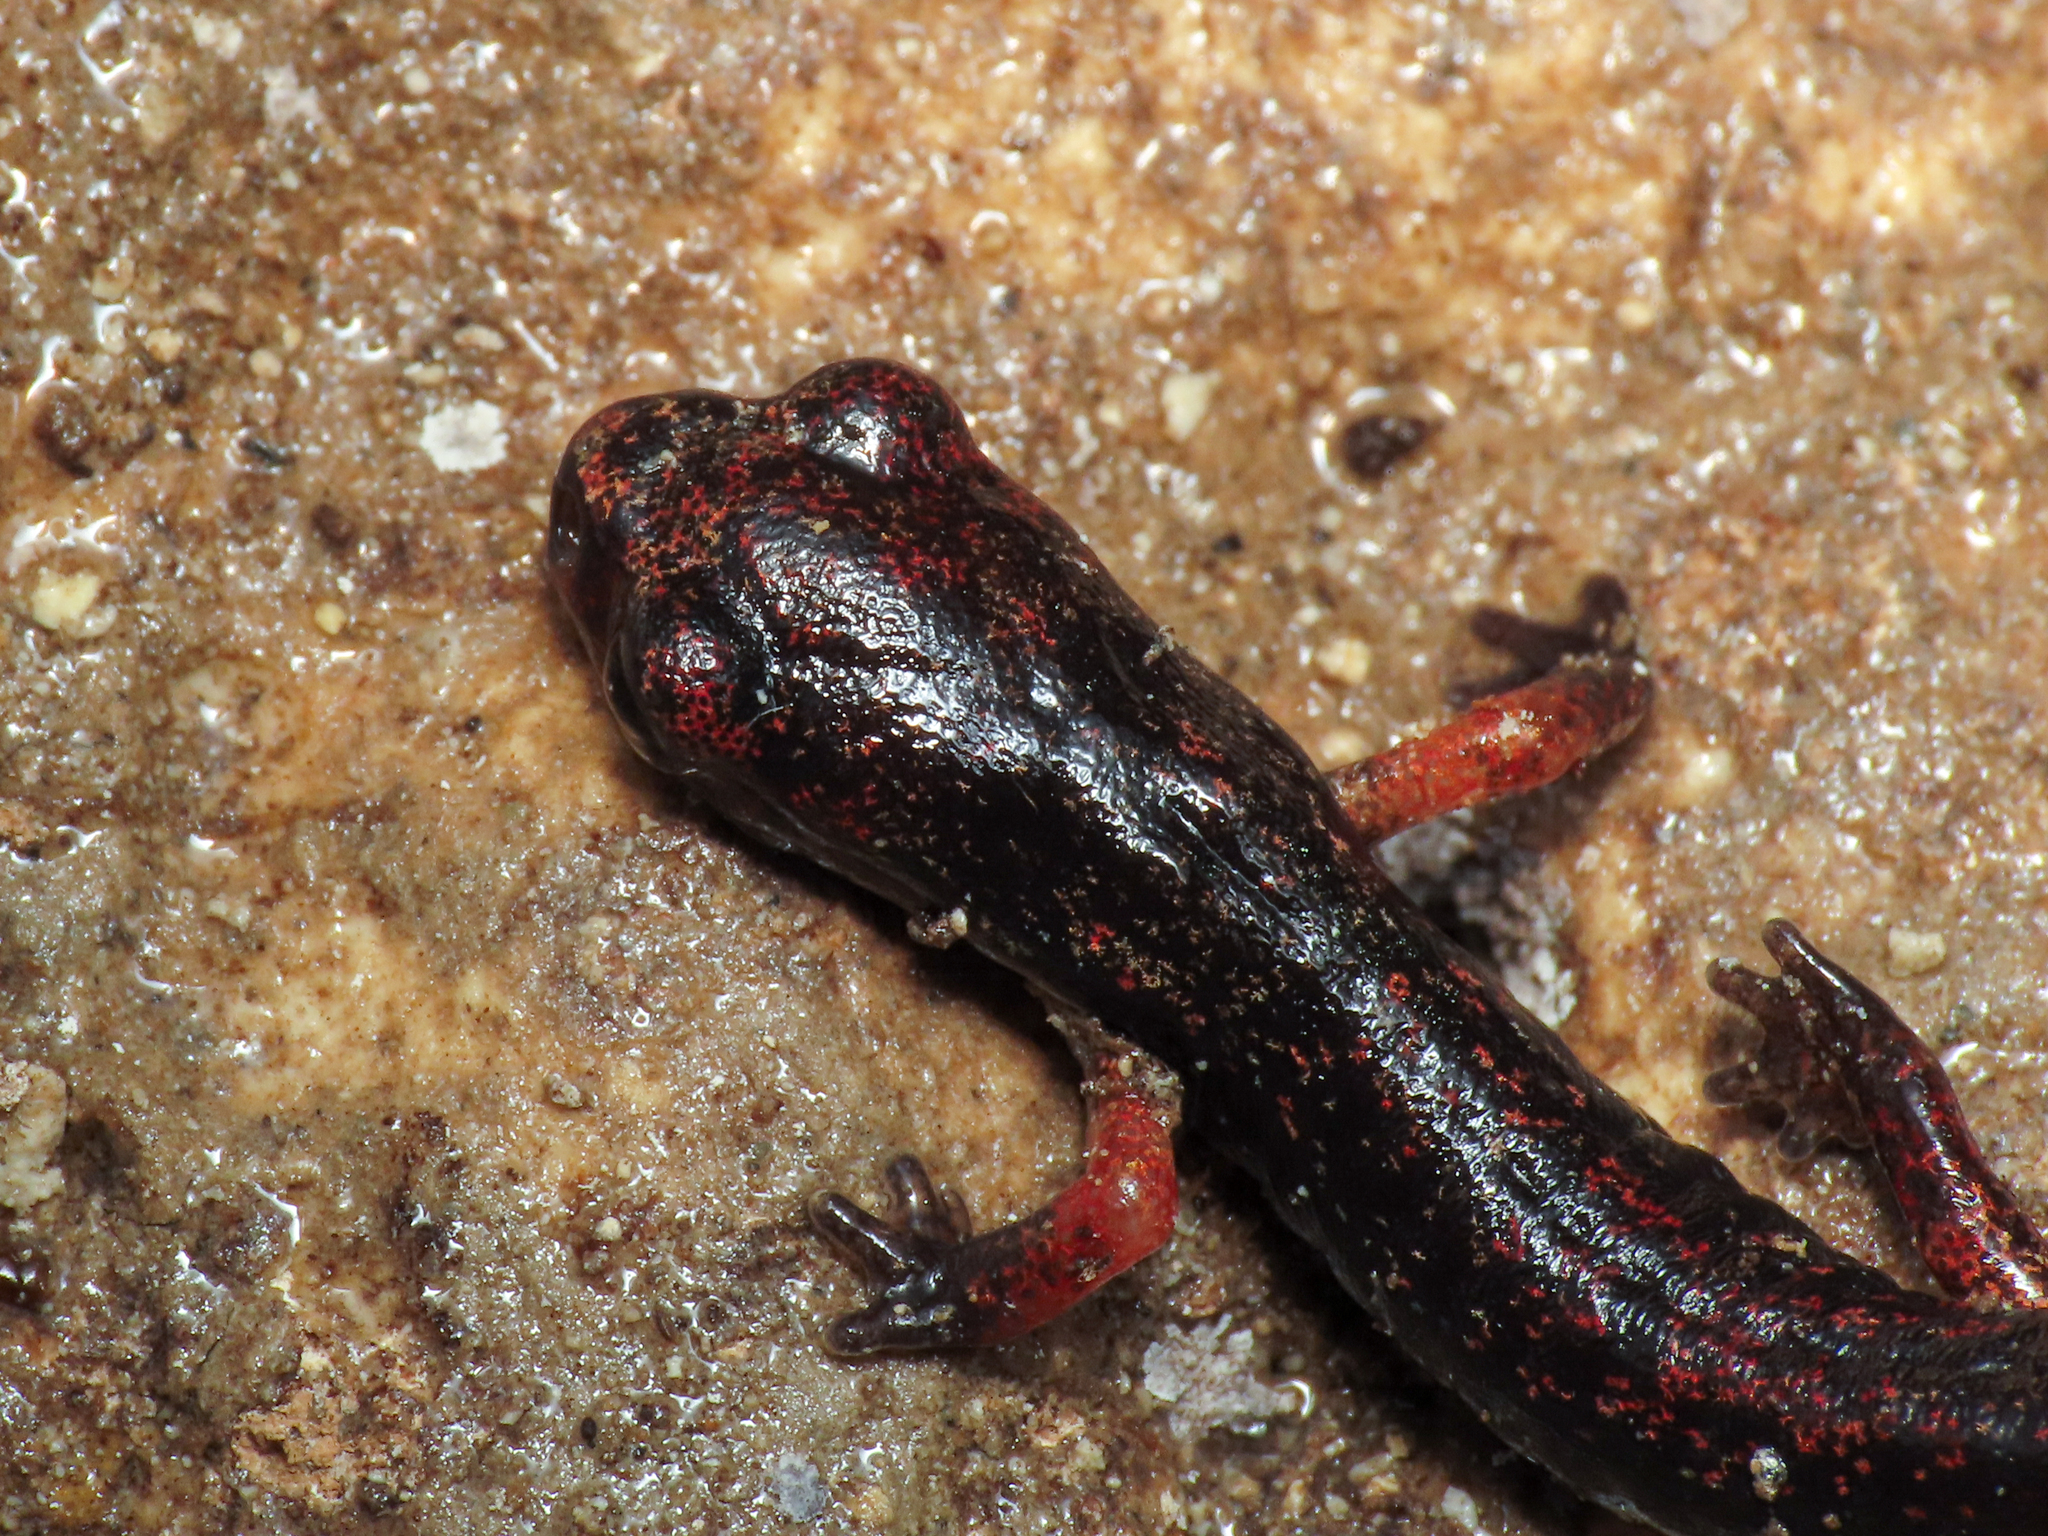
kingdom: Animalia
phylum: Chordata
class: Amphibia
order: Caudata
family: Plethodontidae
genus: Speleomantes
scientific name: Speleomantes italicus
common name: Italian cave salamander
